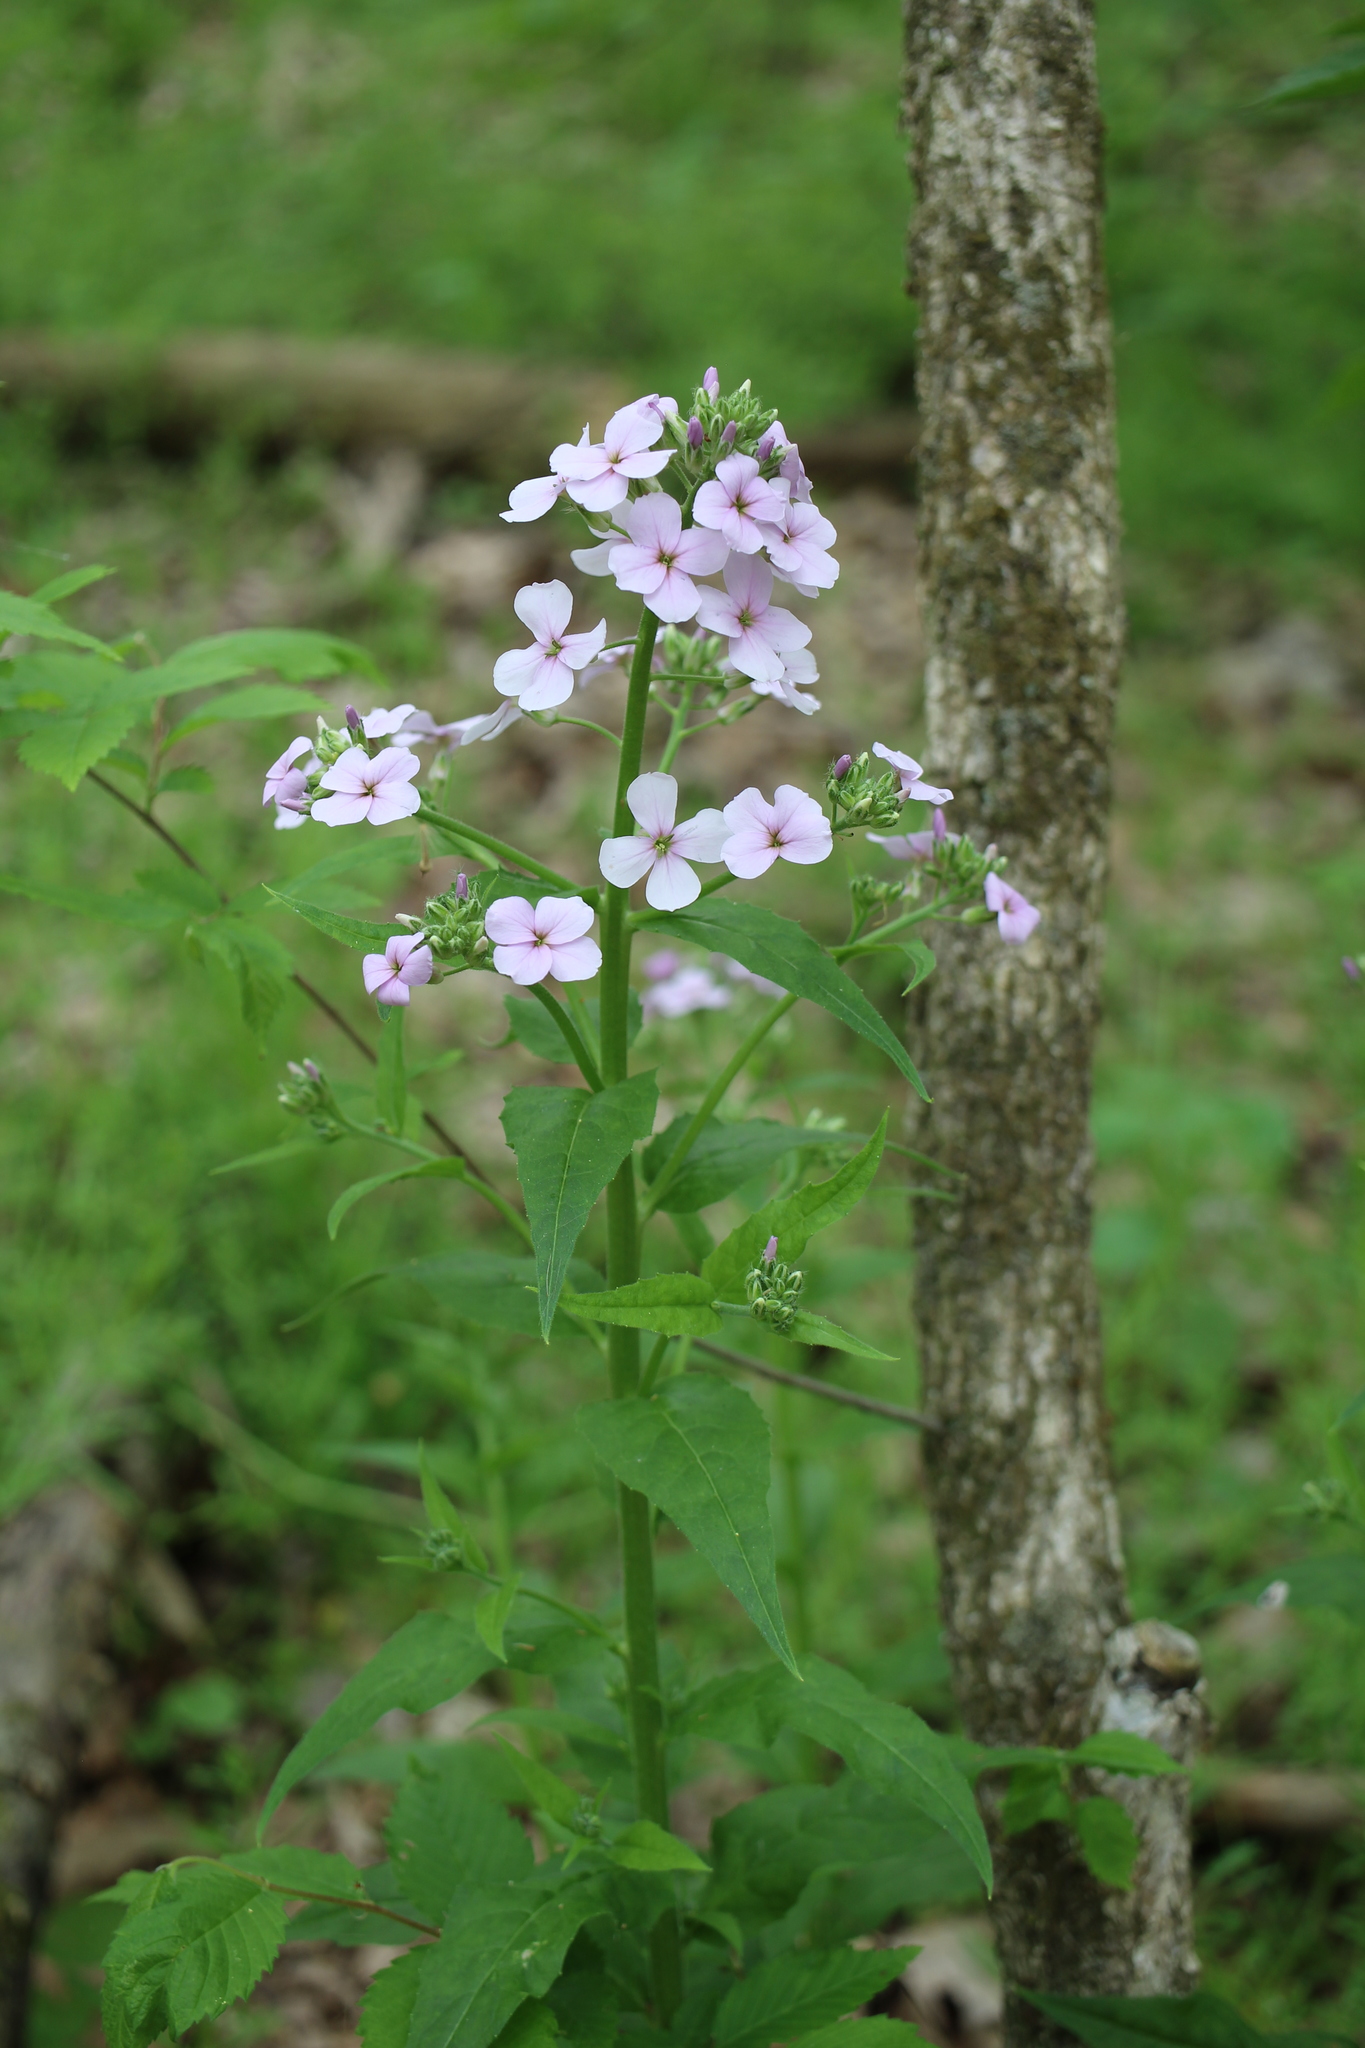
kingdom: Plantae
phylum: Tracheophyta
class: Magnoliopsida
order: Brassicales
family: Brassicaceae
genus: Hesperis
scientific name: Hesperis matronalis
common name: Dame's-violet
